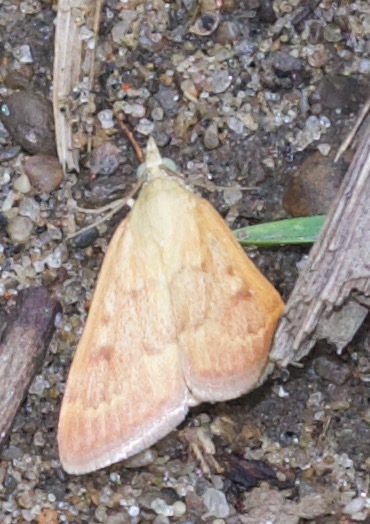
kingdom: Animalia
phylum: Arthropoda
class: Insecta
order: Lepidoptera
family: Crambidae
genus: Achyra
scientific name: Achyra rantalis
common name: Garden webworm
